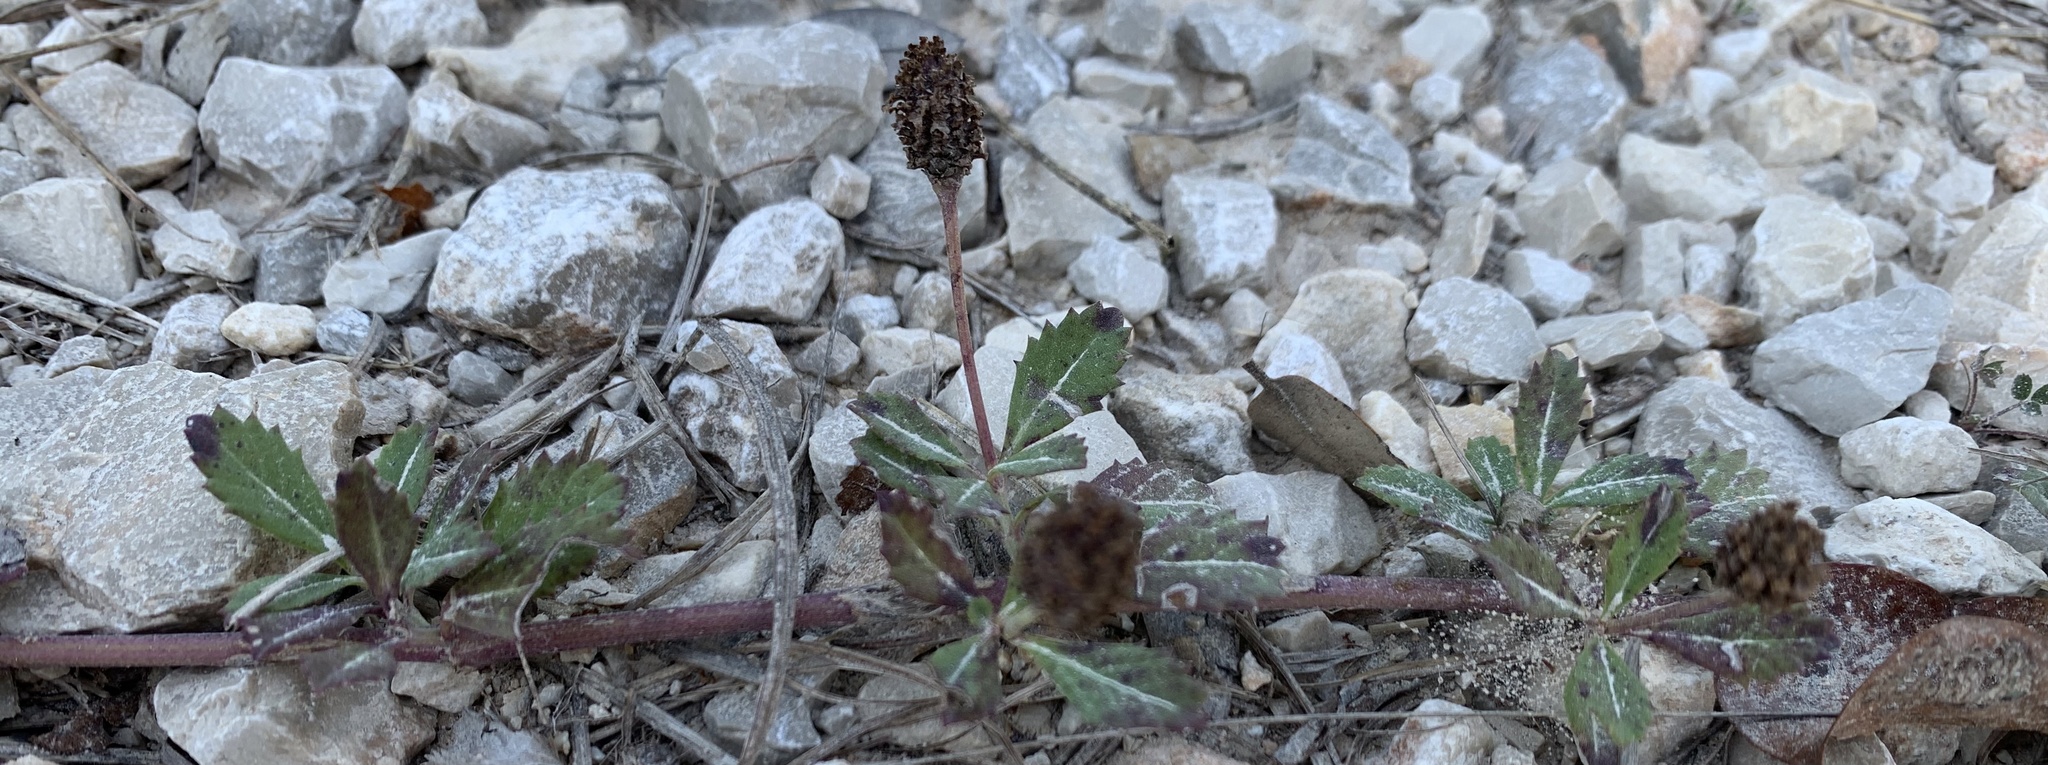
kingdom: Plantae
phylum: Tracheophyta
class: Magnoliopsida
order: Lamiales
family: Verbenaceae
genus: Phyla
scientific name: Phyla nodiflora
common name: Frogfruit
